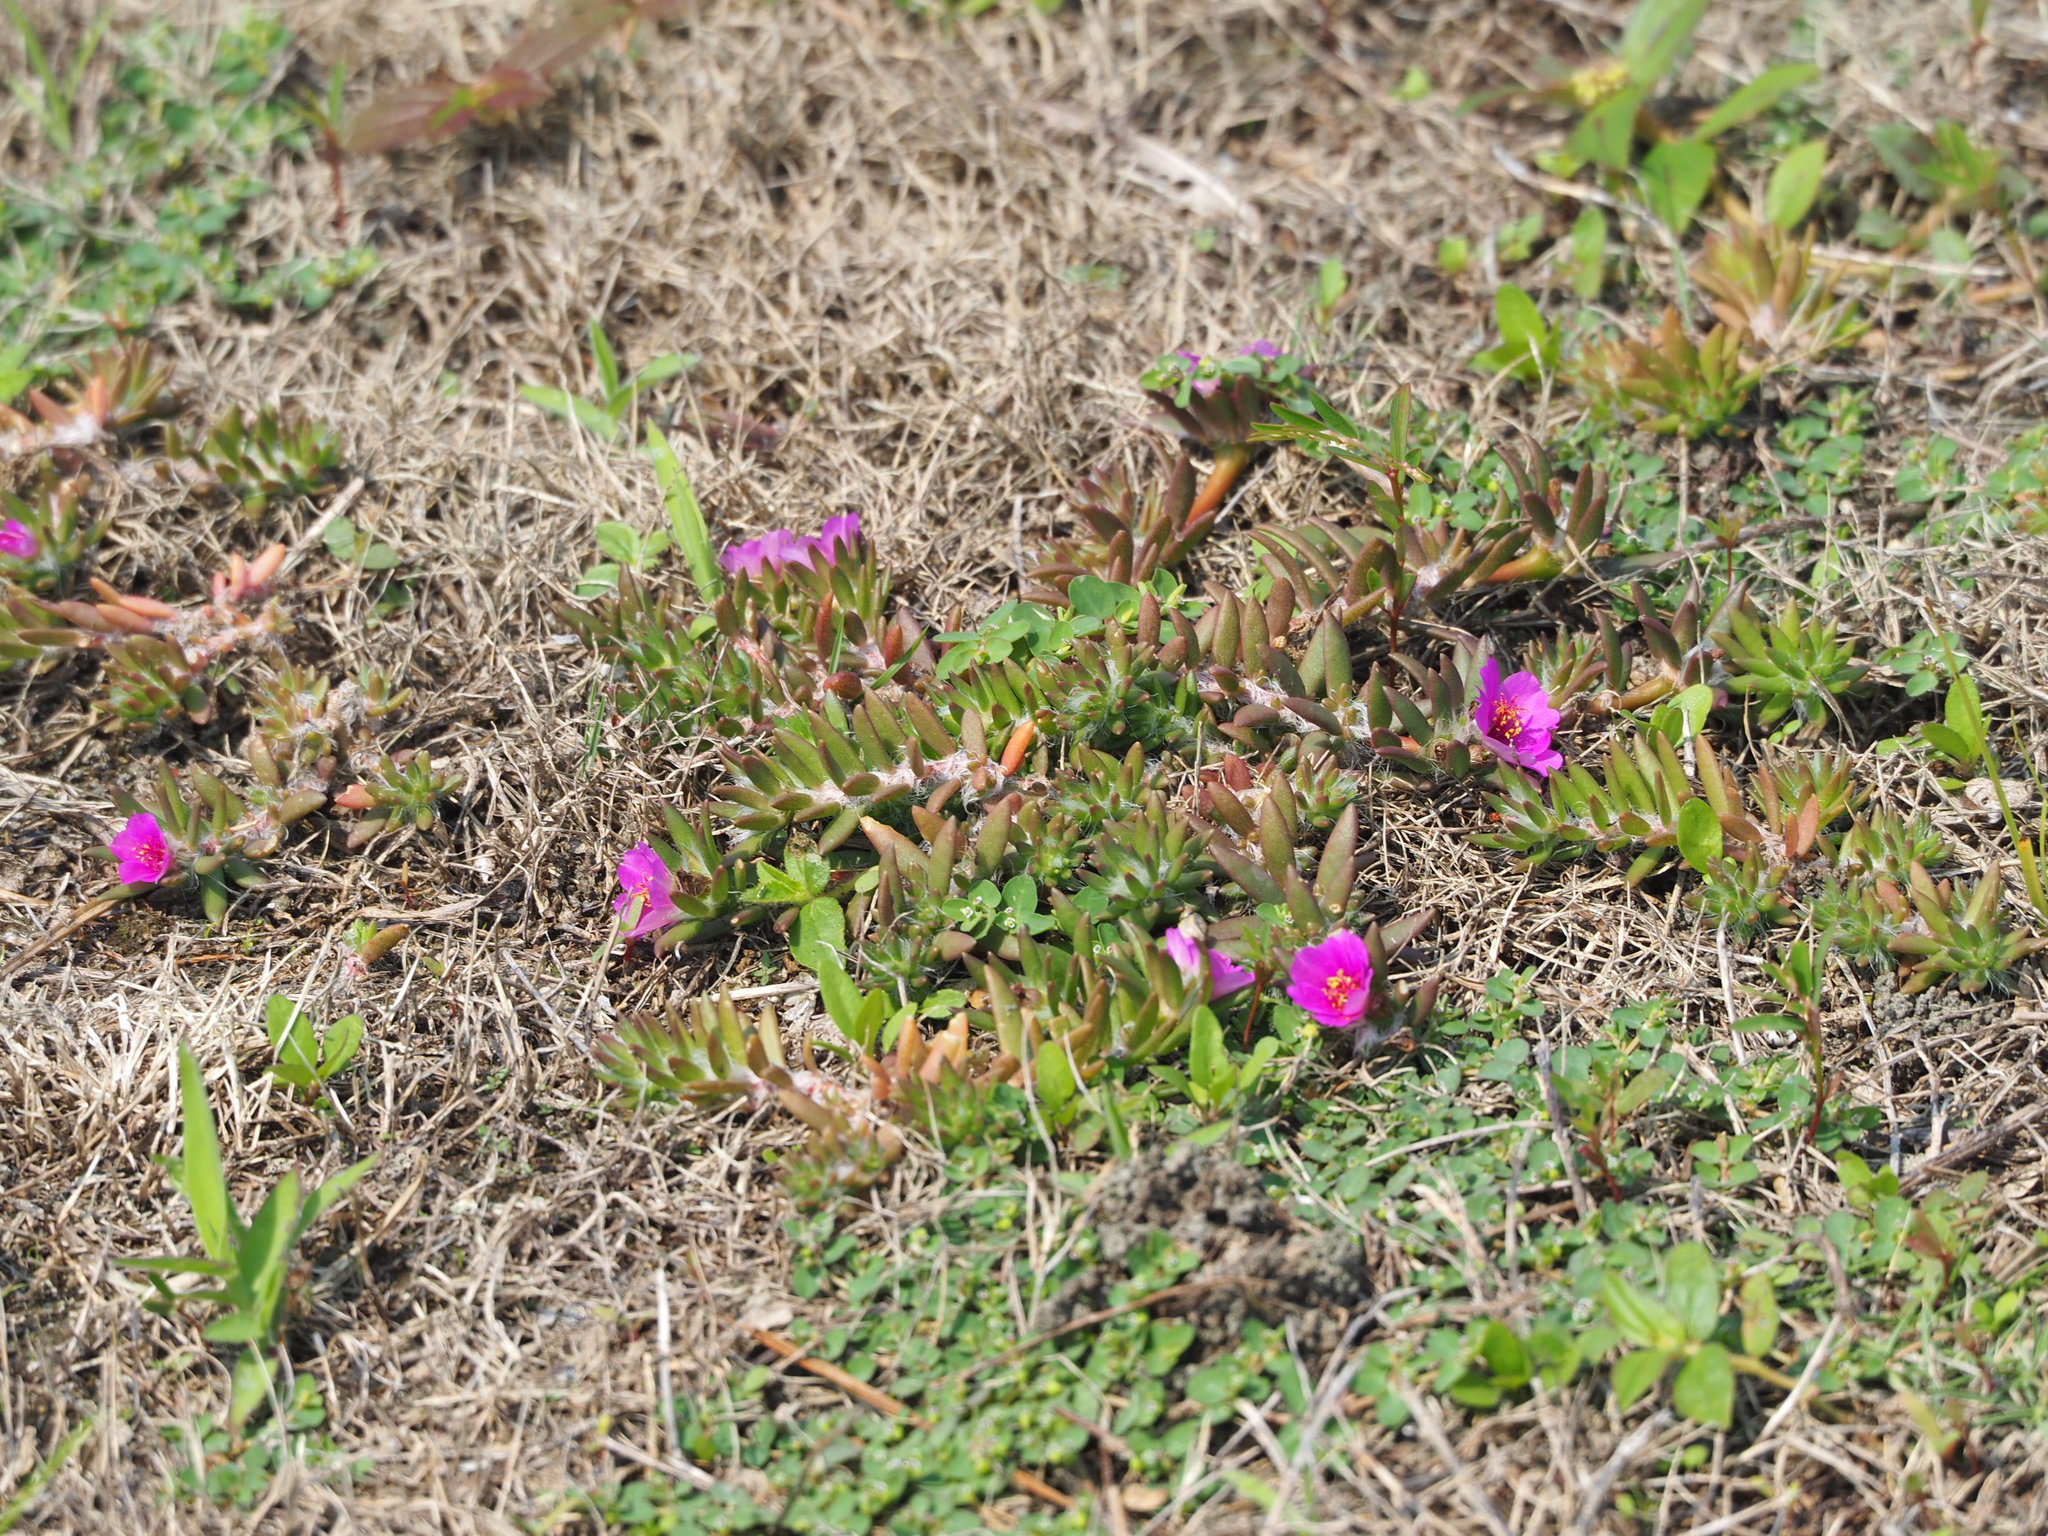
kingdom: Plantae
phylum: Tracheophyta
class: Magnoliopsida
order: Caryophyllales
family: Portulacaceae
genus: Portulaca
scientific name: Portulaca pilosa
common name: Kiss me quick
